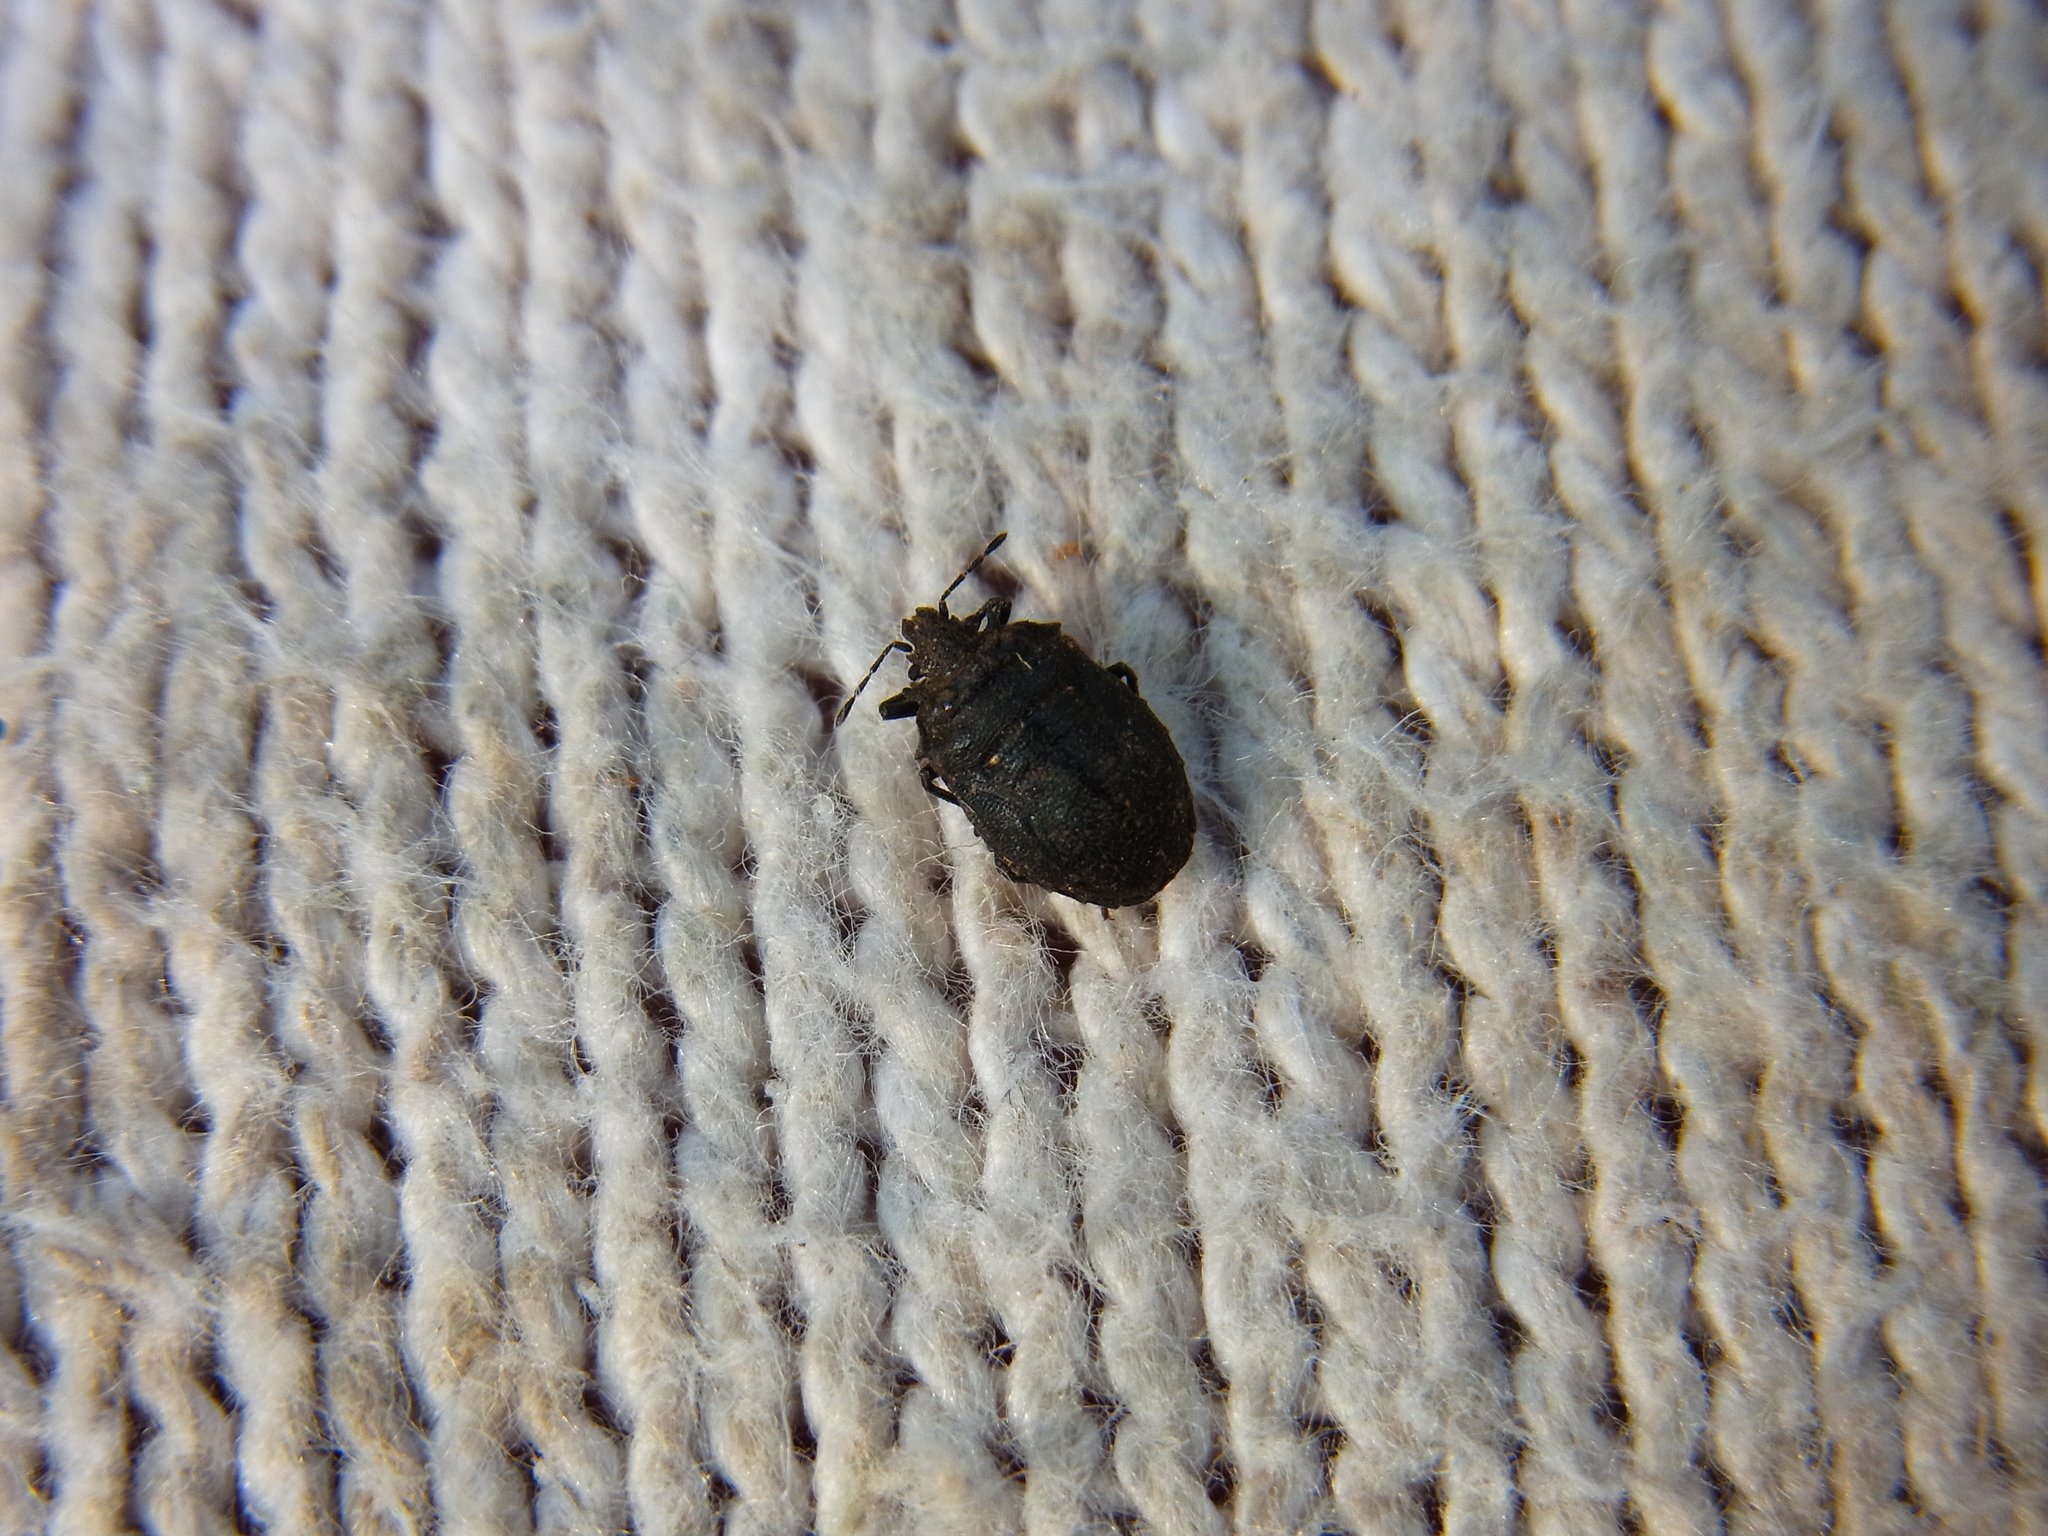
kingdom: Animalia
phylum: Arthropoda
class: Insecta
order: Hemiptera
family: Pentatomidae
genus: Scotinophara
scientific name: Scotinophara scottii
